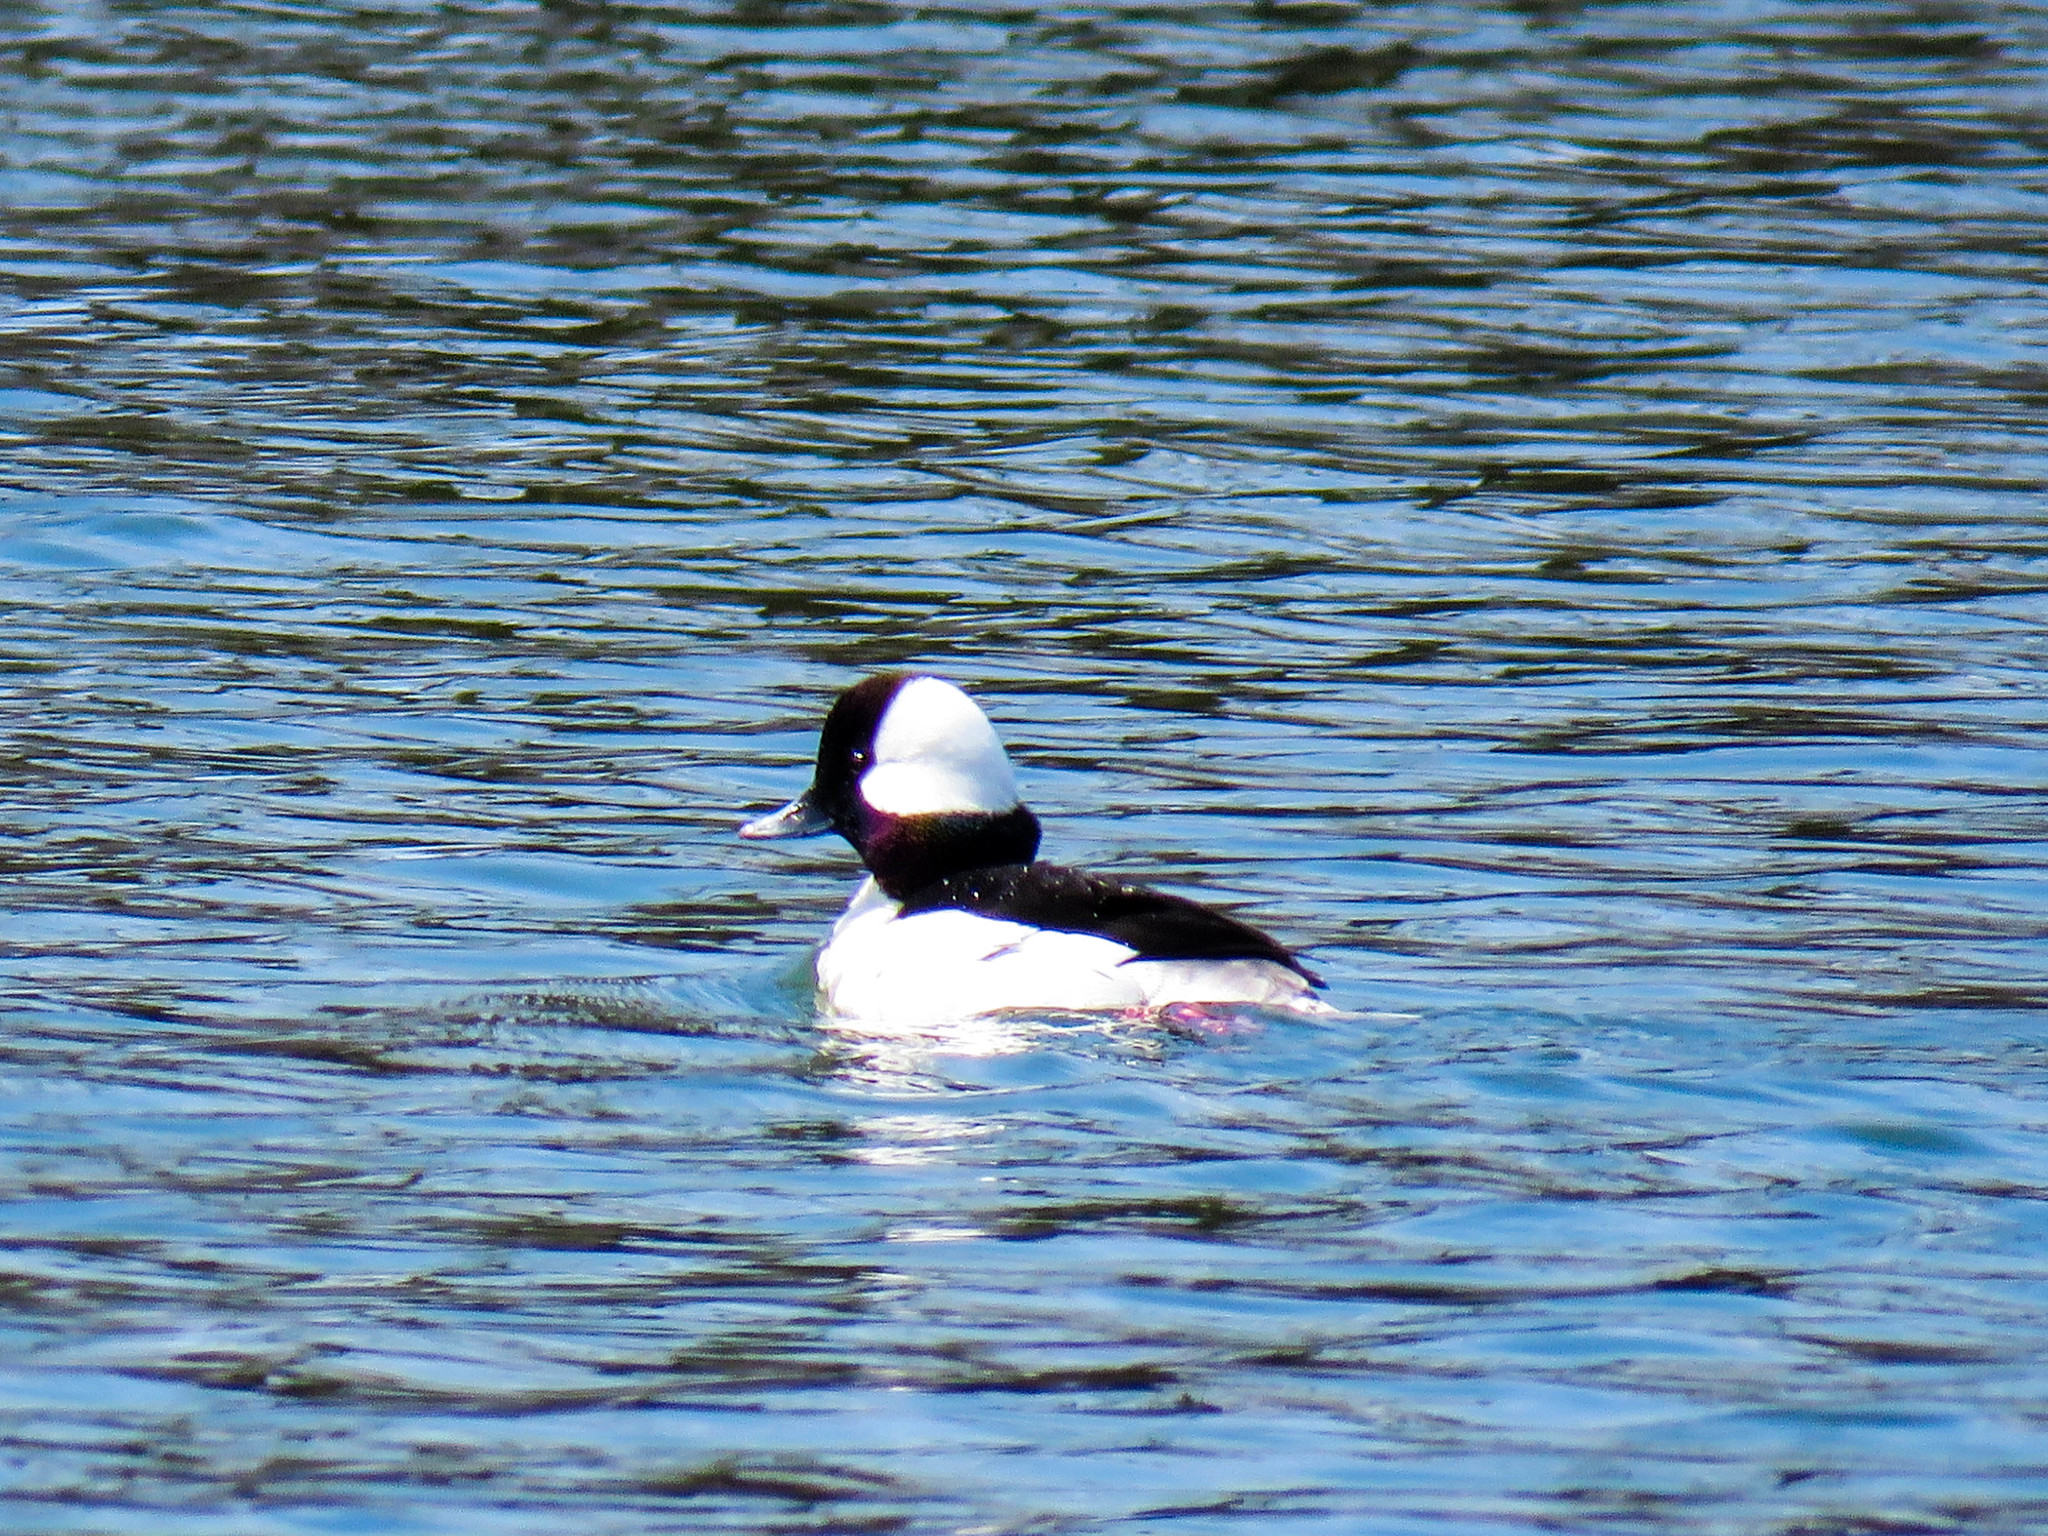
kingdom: Animalia
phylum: Chordata
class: Aves
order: Anseriformes
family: Anatidae
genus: Bucephala
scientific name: Bucephala albeola
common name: Bufflehead
